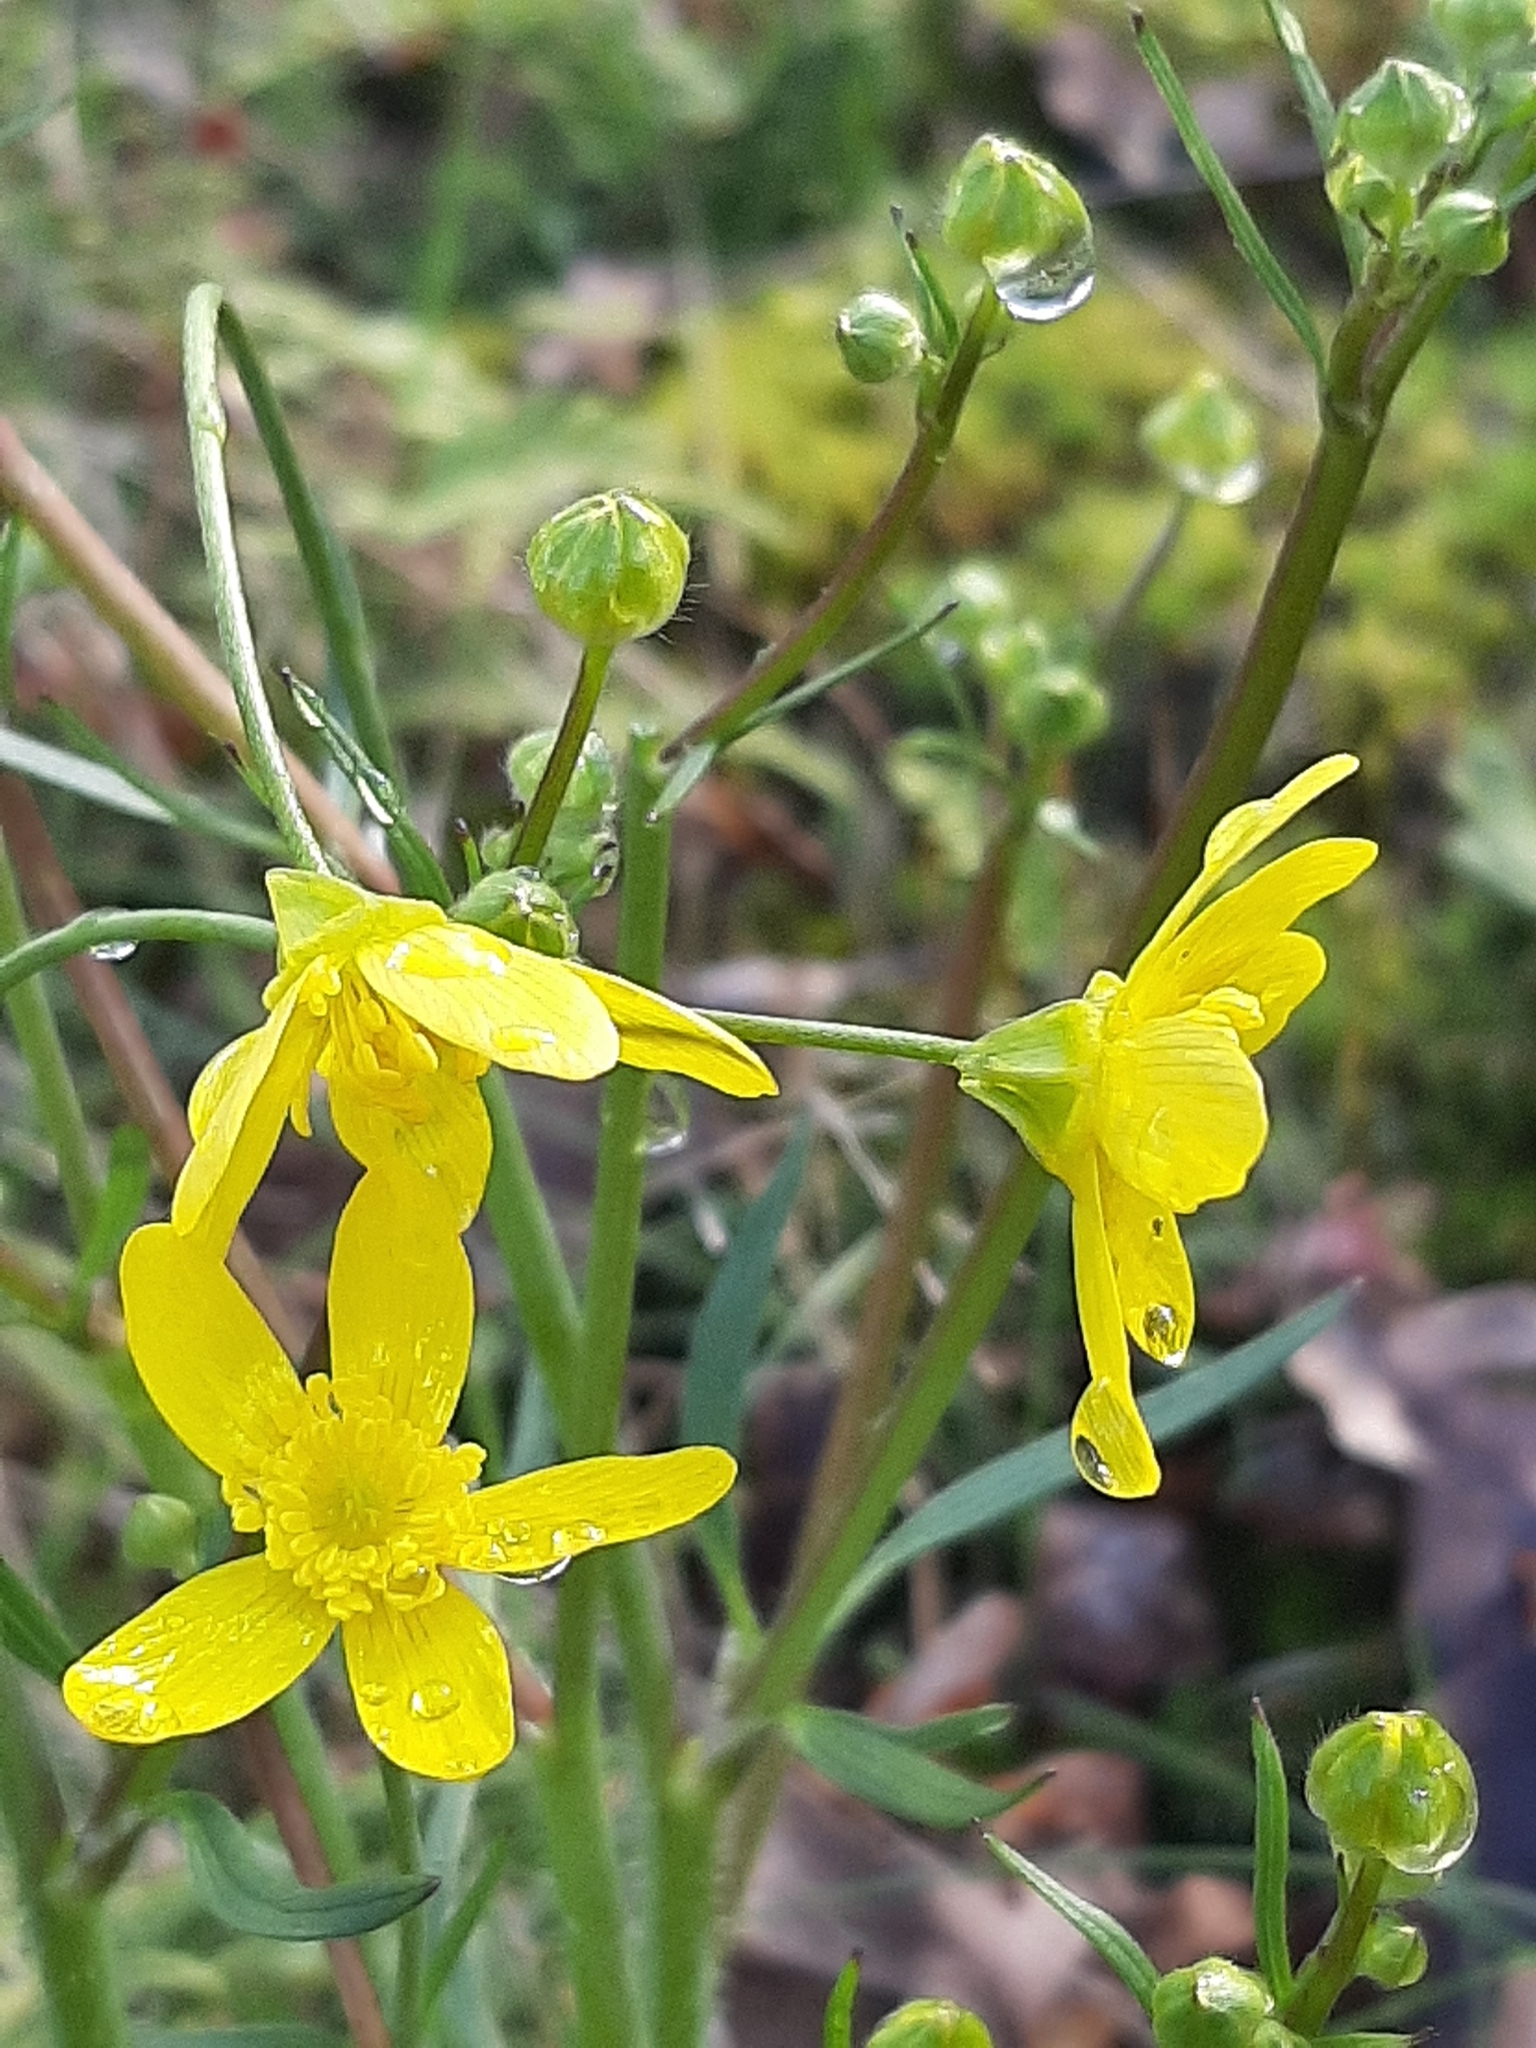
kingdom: Plantae
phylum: Tracheophyta
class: Magnoliopsida
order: Ranunculales
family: Ranunculaceae
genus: Ranunculus
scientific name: Ranunculus occidentalis
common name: Western buttercup
